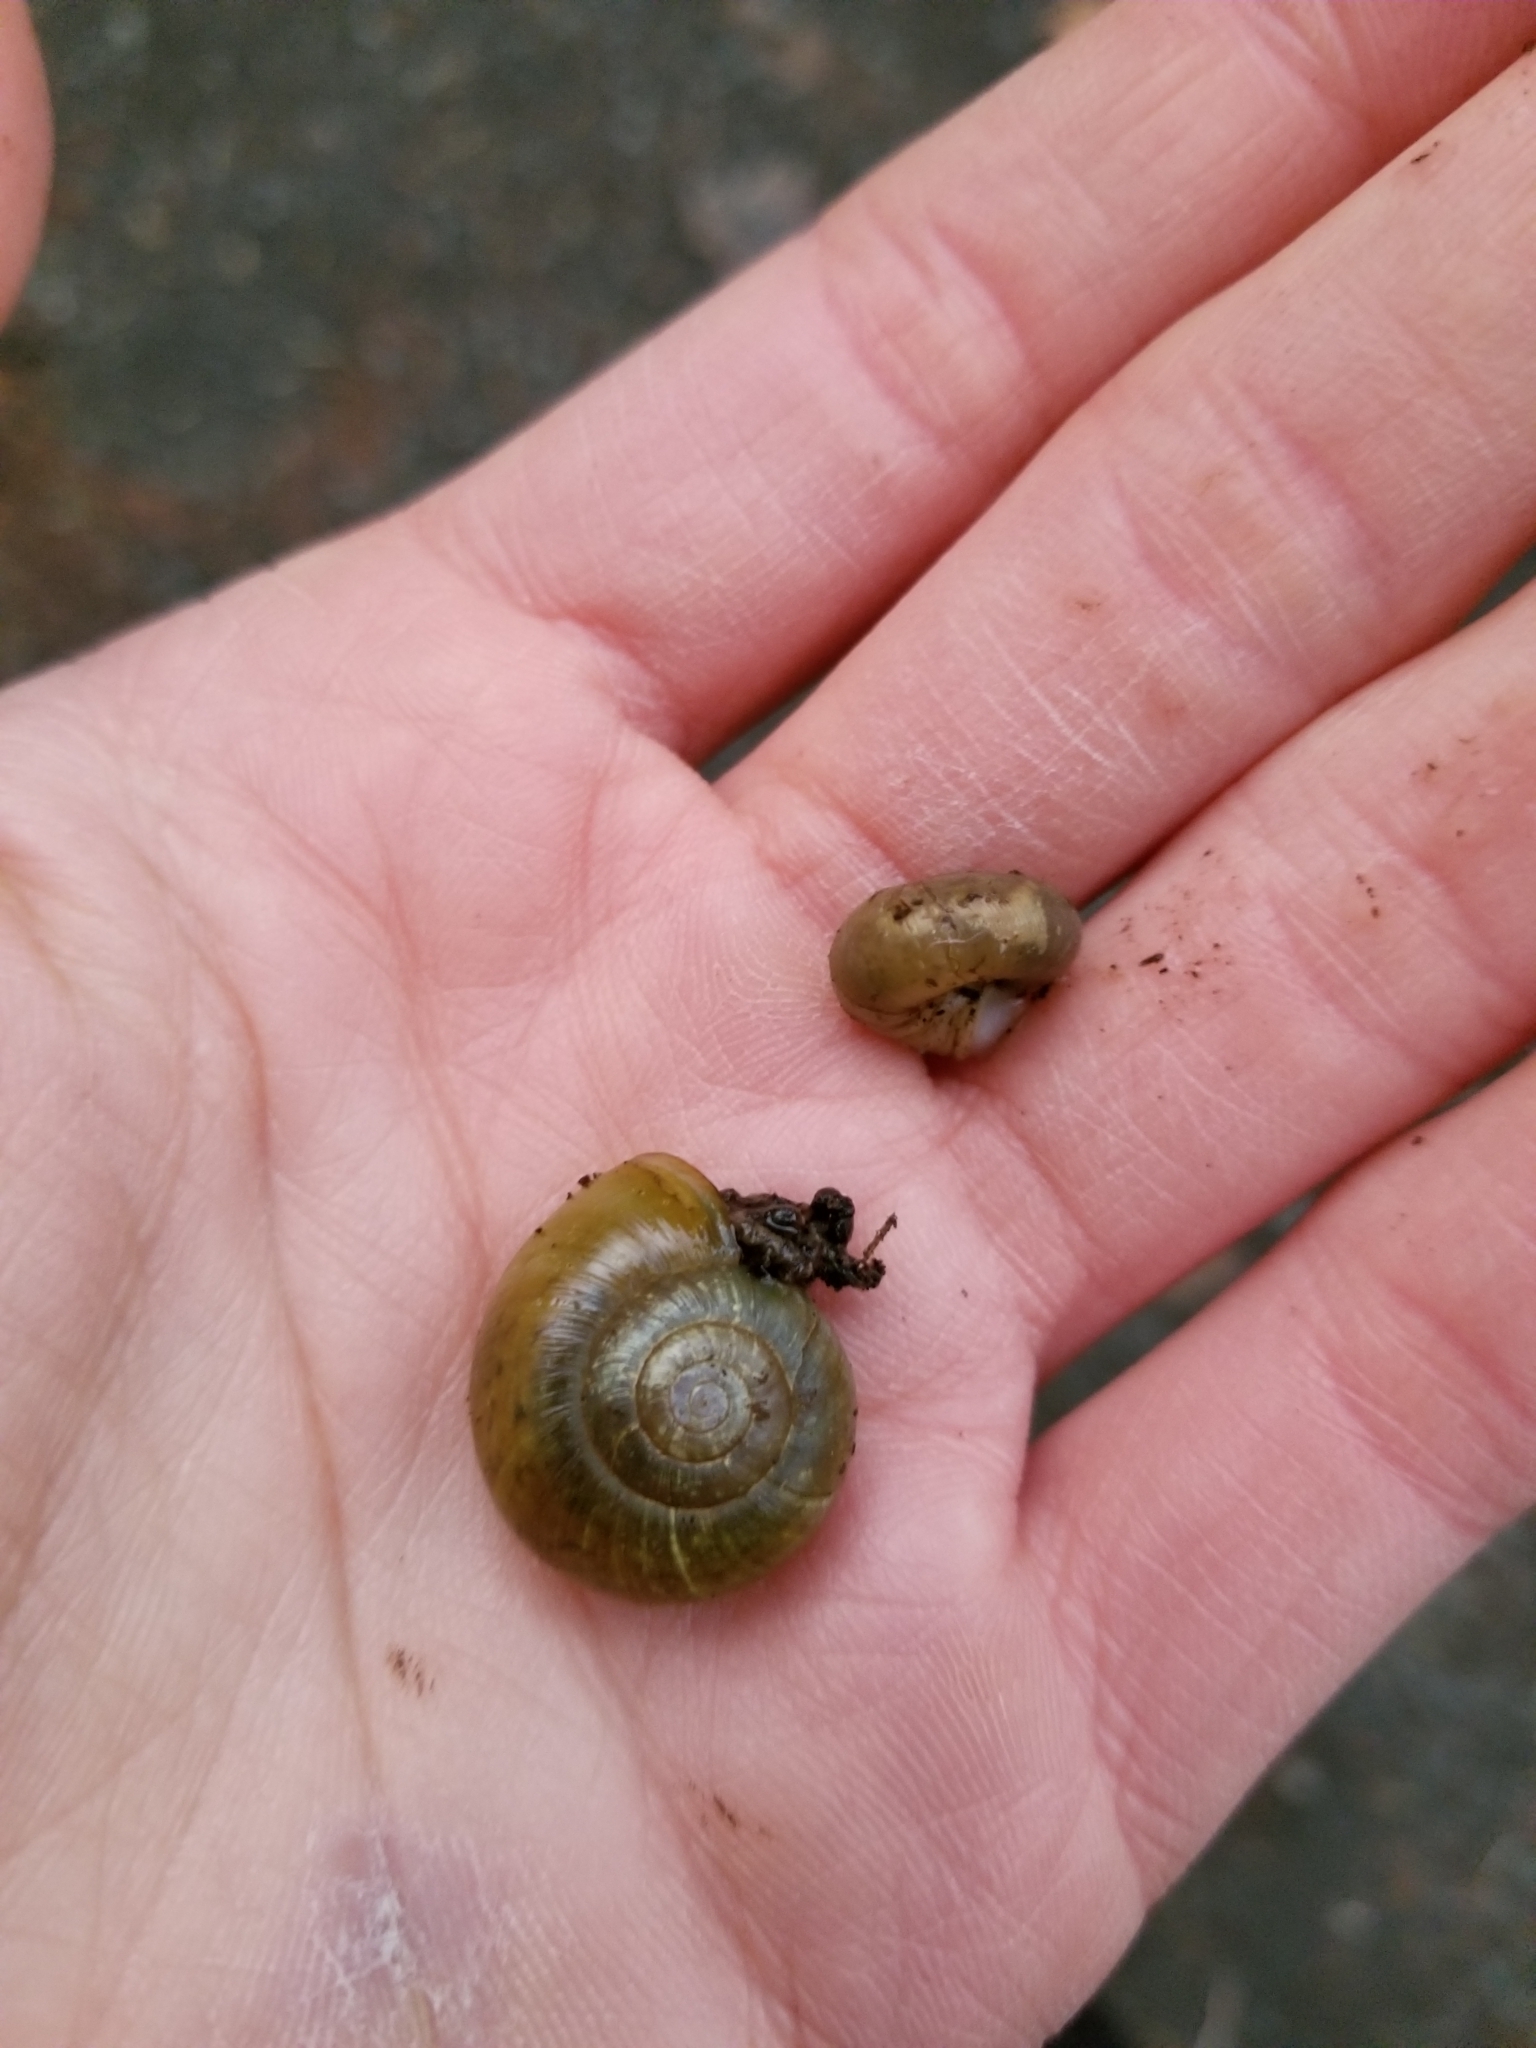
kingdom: Animalia
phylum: Mollusca
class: Gastropoda
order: Stylommatophora
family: Haplotrematidae
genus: Haplotrema
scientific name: Haplotrema vancouverense
